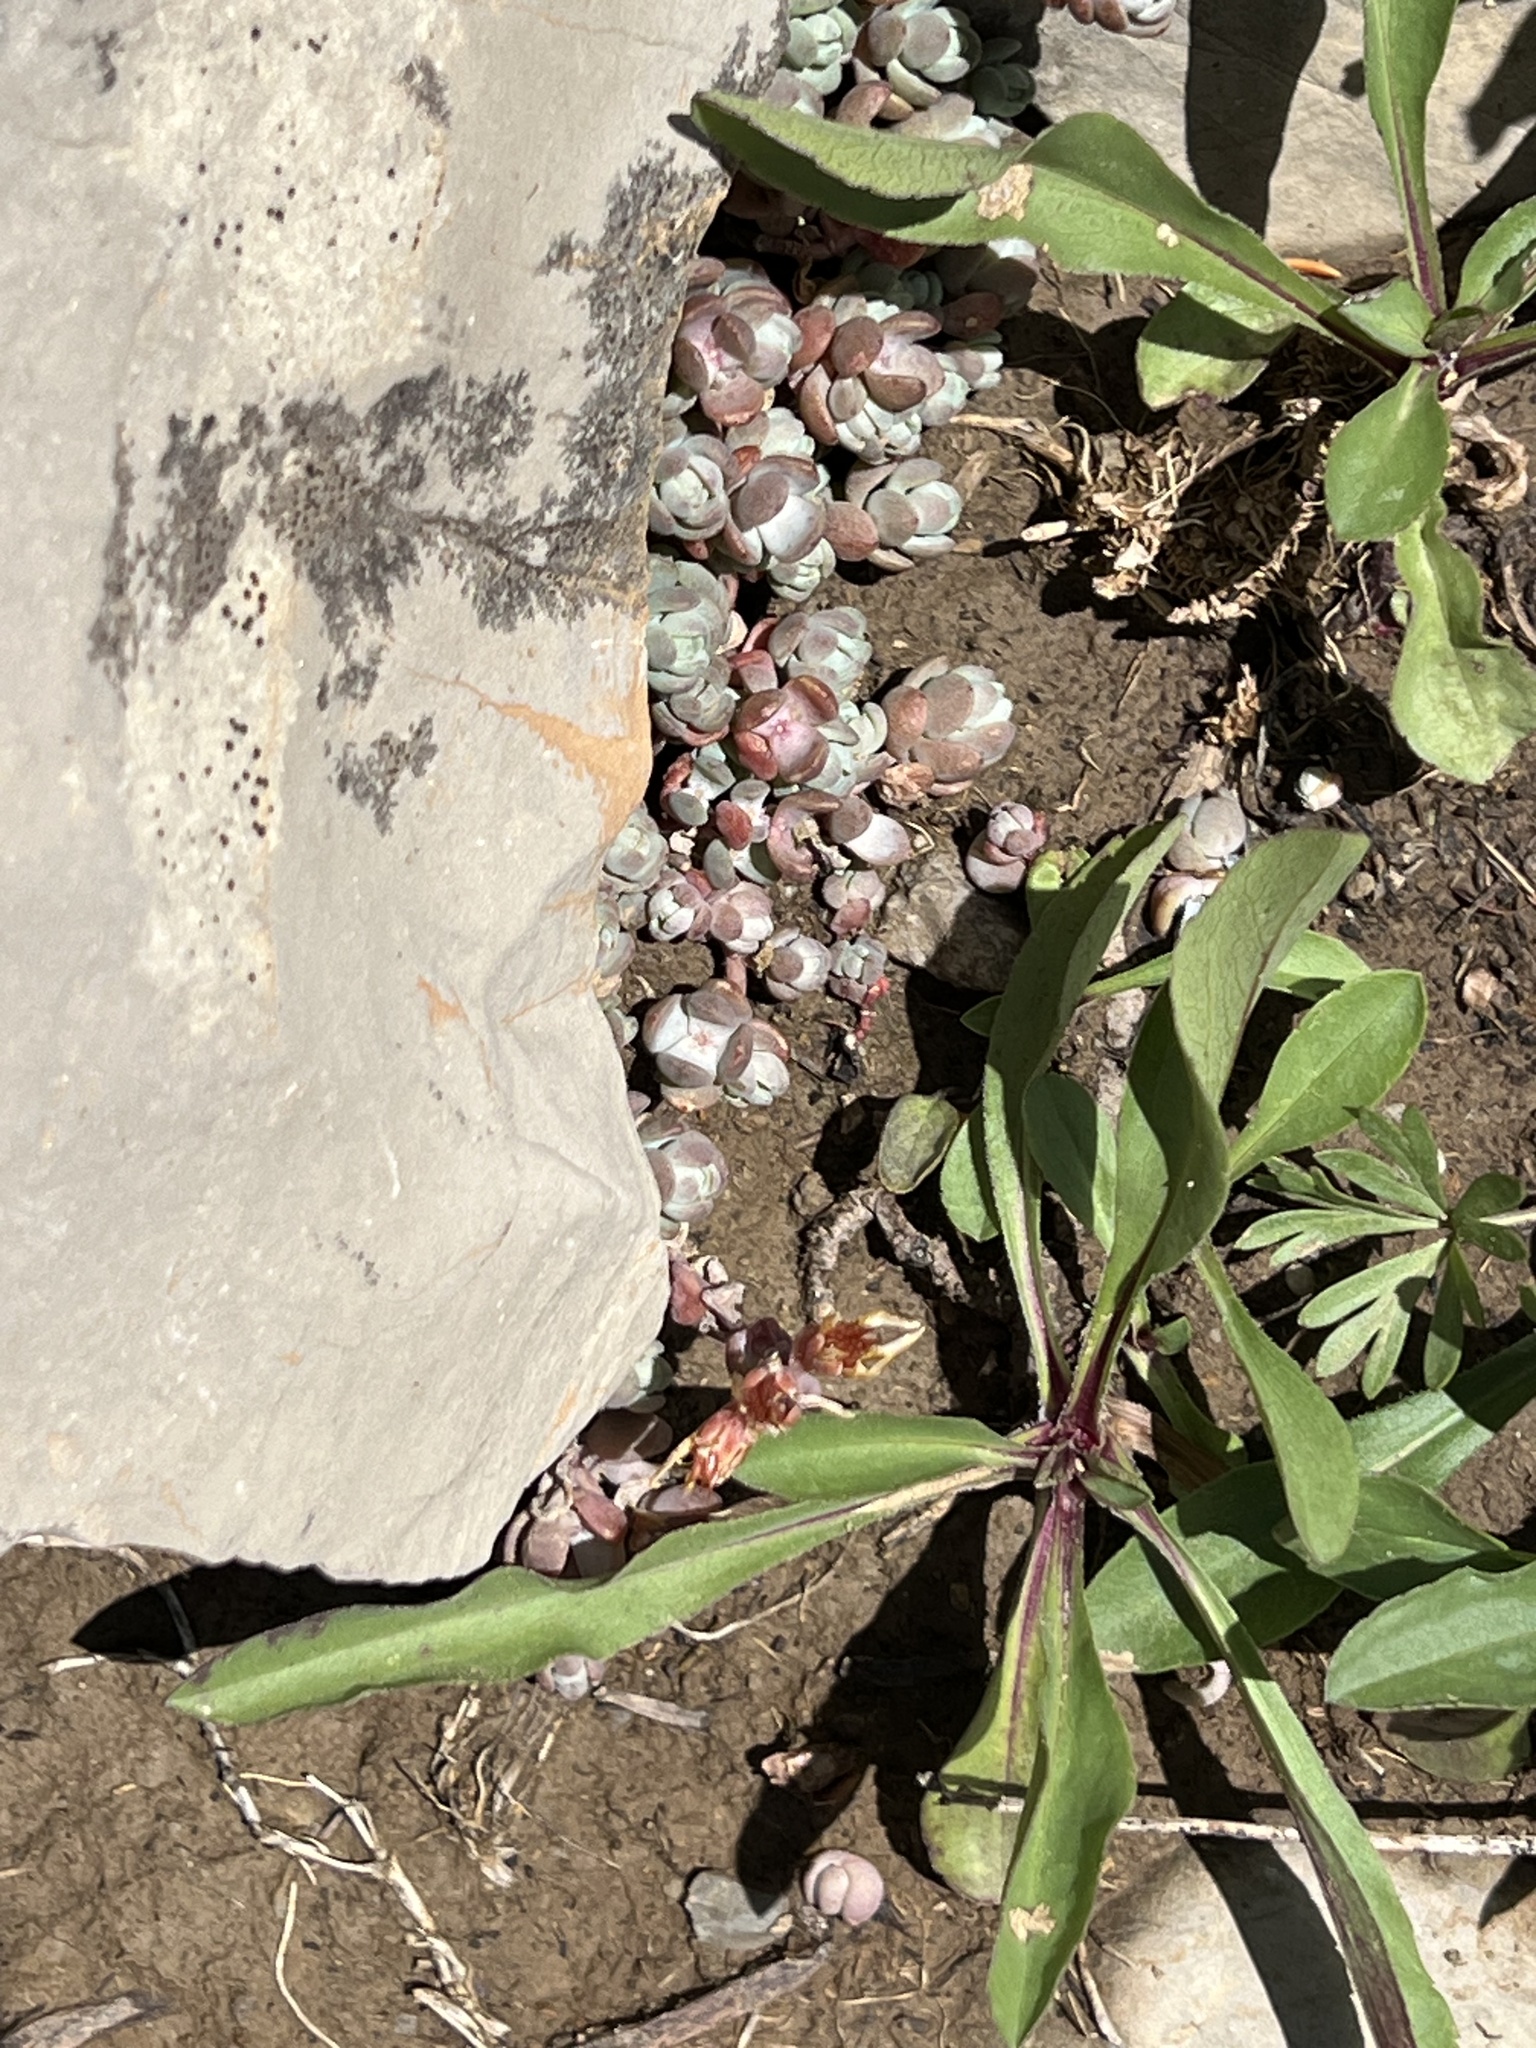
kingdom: Plantae
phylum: Tracheophyta
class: Magnoliopsida
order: Saxifragales
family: Crassulaceae
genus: Sedum
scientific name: Sedum debile
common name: Weak-stem stonecrop
